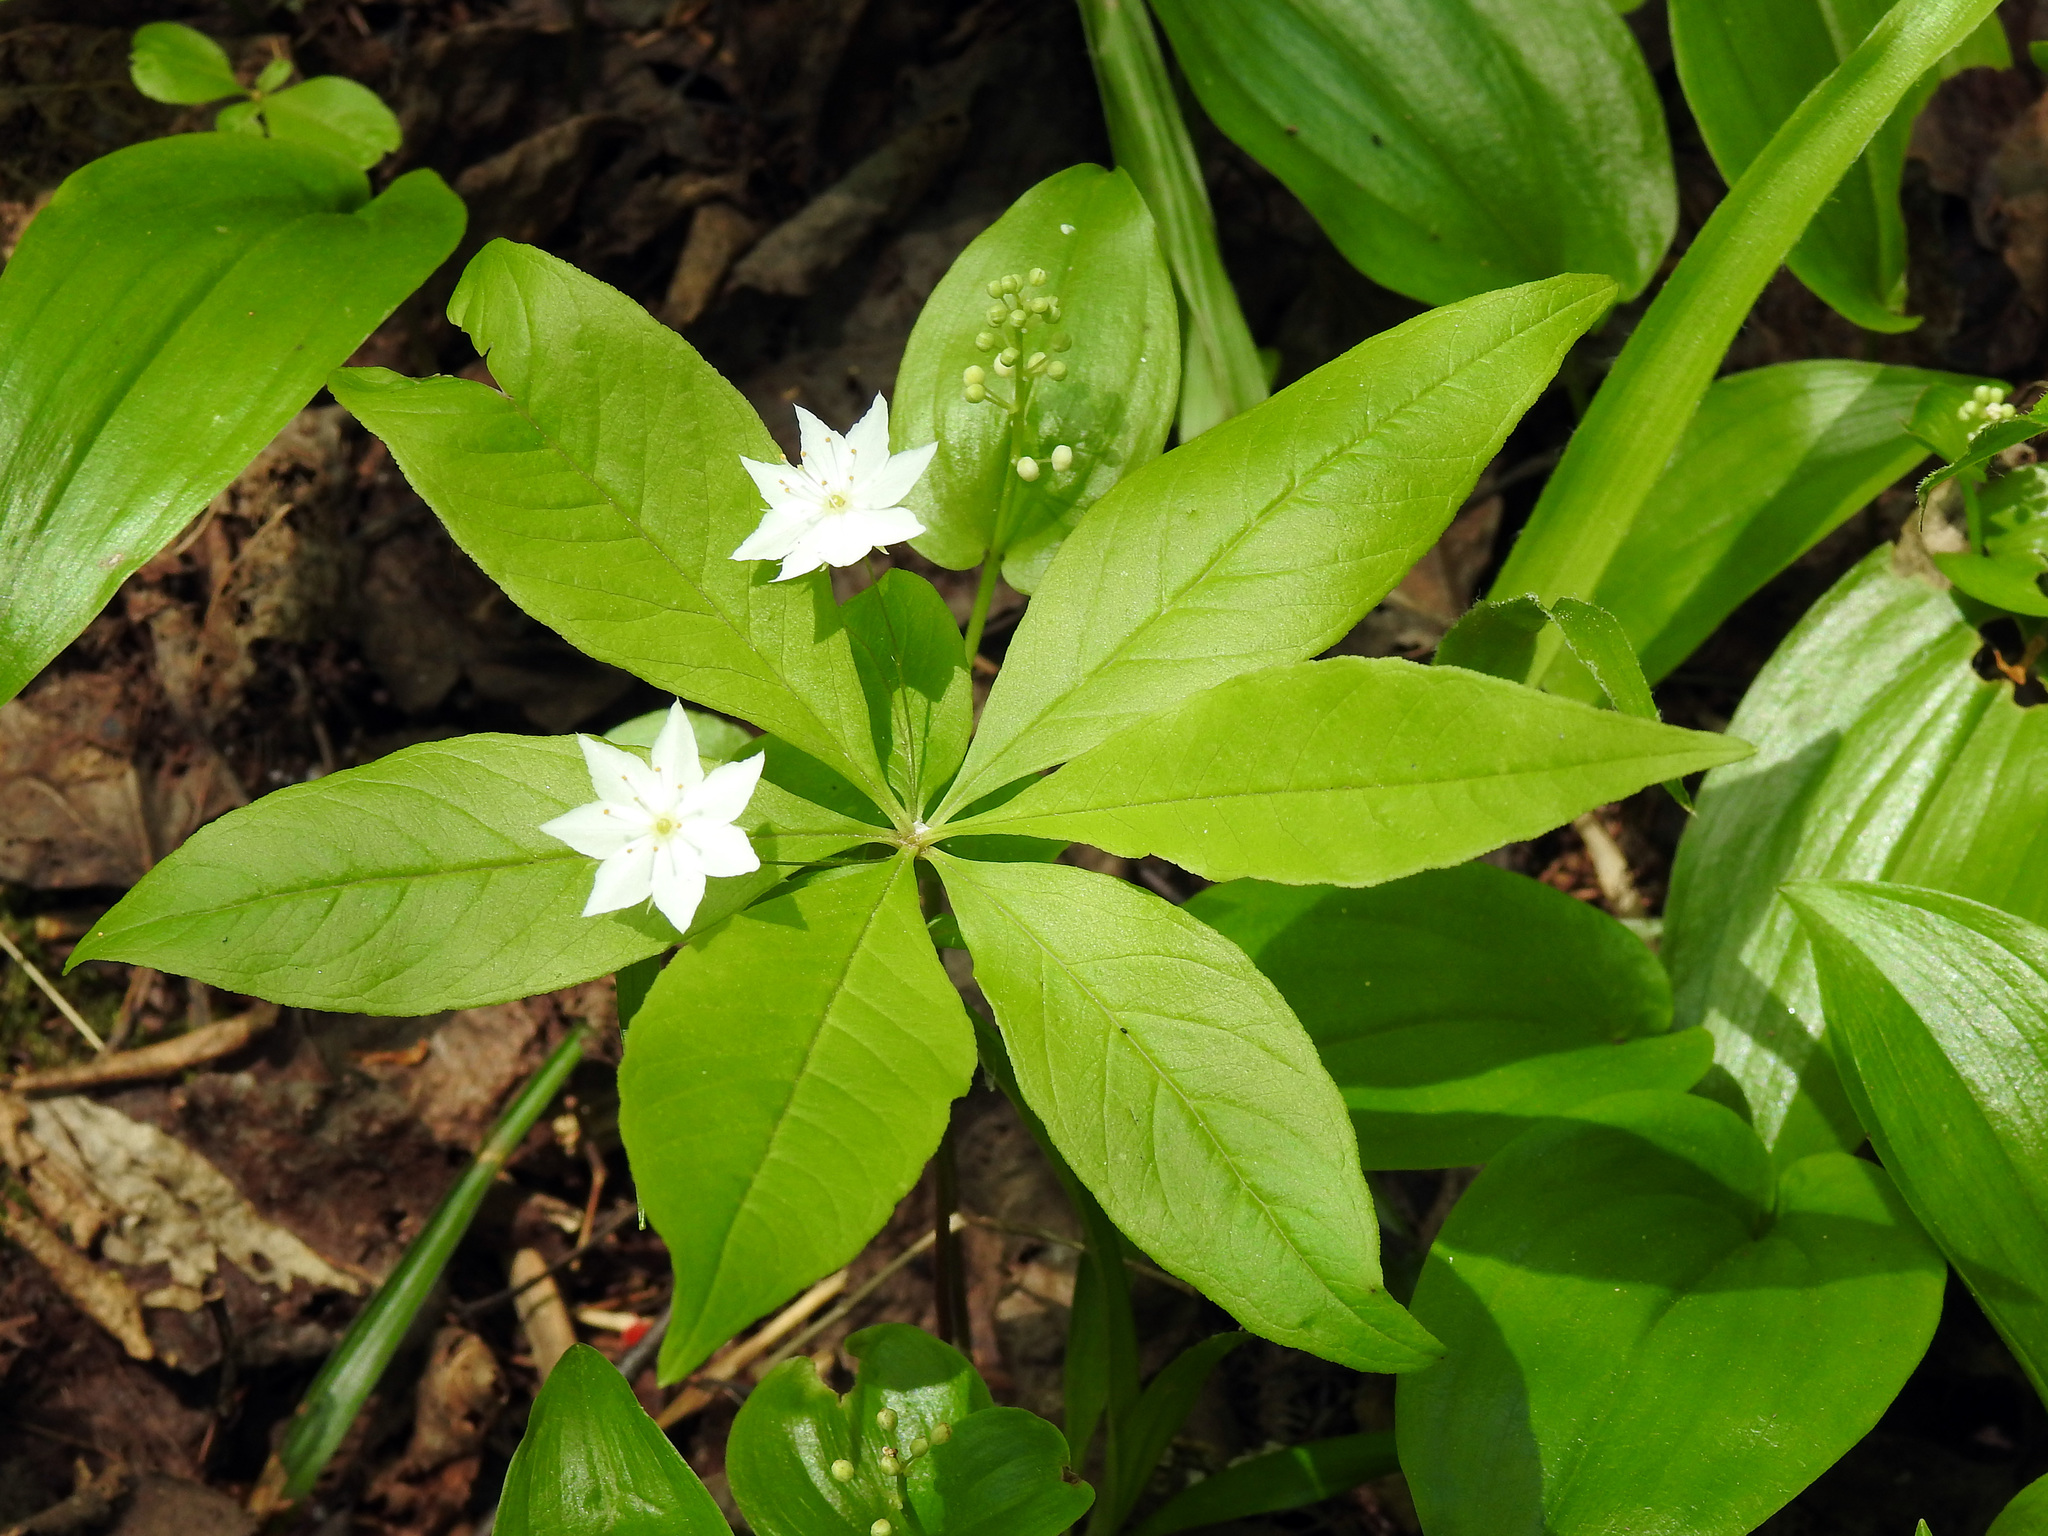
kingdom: Plantae
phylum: Tracheophyta
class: Magnoliopsida
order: Ericales
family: Primulaceae
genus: Lysimachia
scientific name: Lysimachia borealis
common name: American starflower
